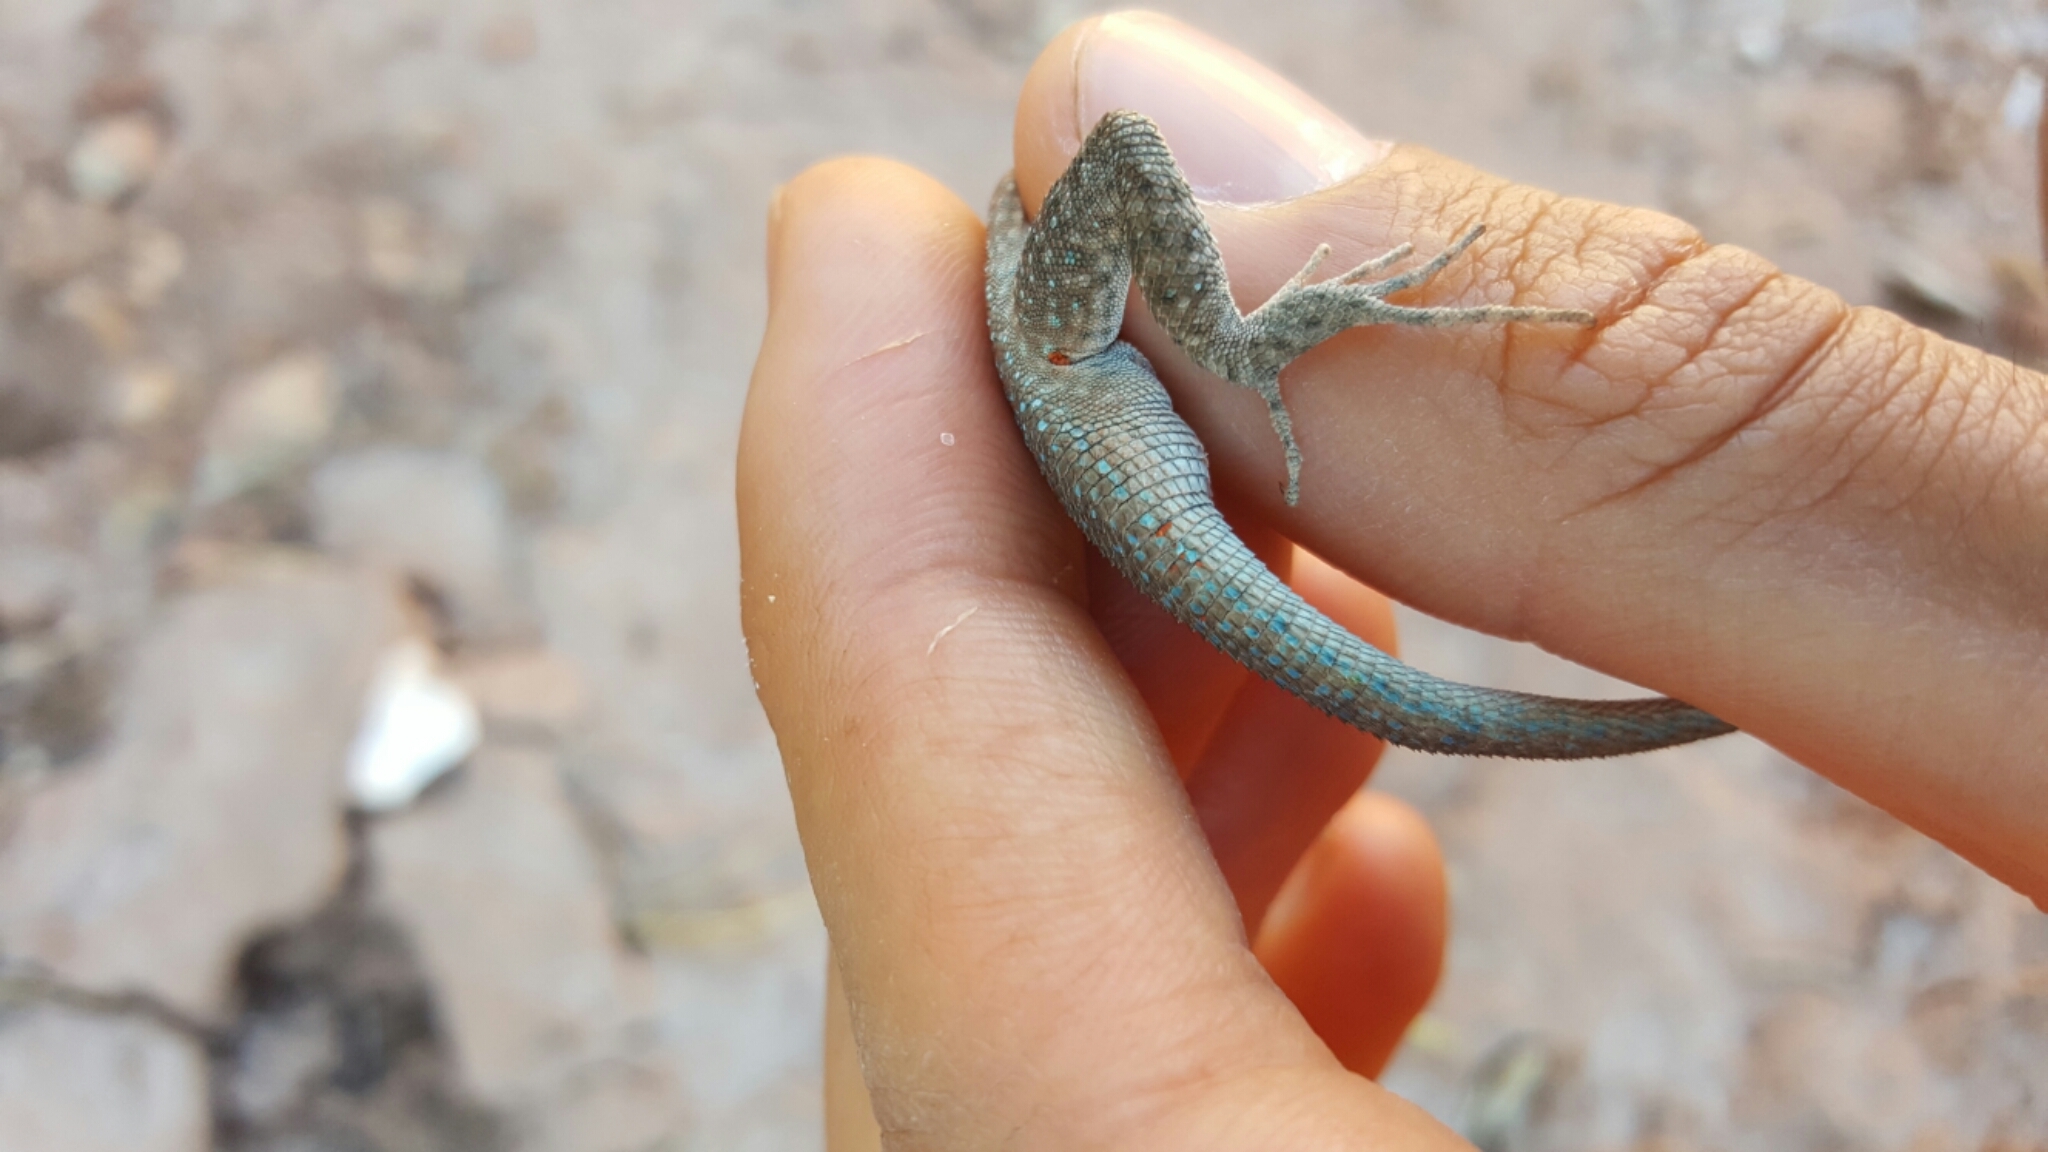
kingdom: Animalia
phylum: Chordata
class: Squamata
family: Phrynosomatidae
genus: Uta
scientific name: Uta stansburiana
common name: Side-blotched lizard
